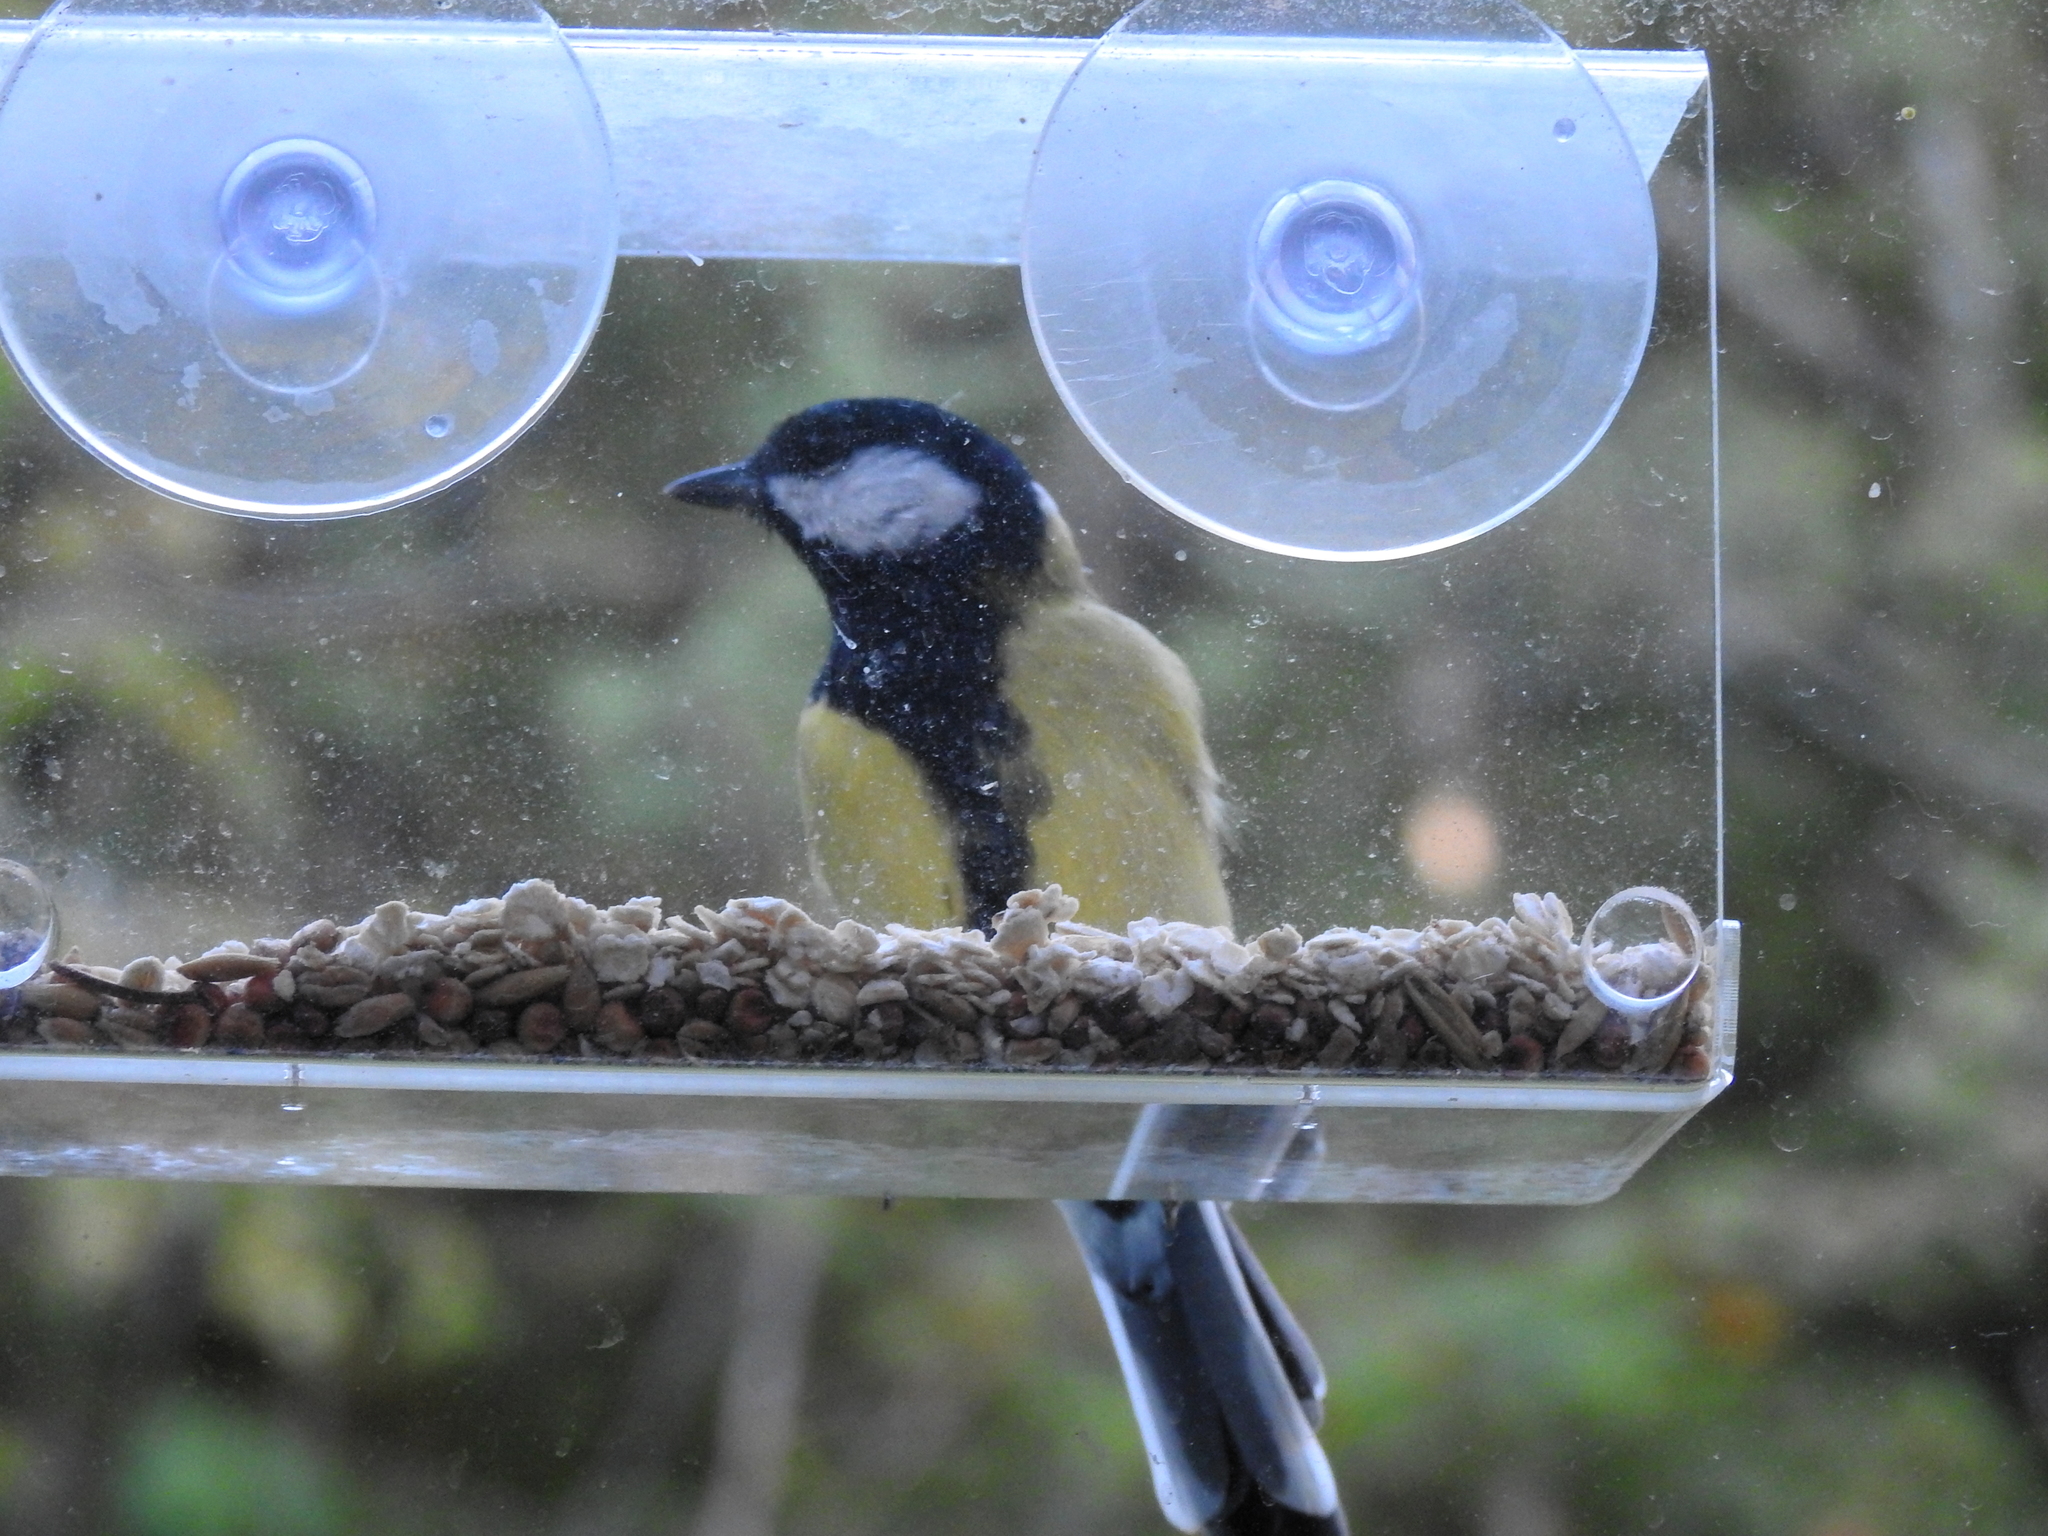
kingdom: Animalia
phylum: Chordata
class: Aves
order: Passeriformes
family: Paridae
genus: Parus
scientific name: Parus major
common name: Great tit
